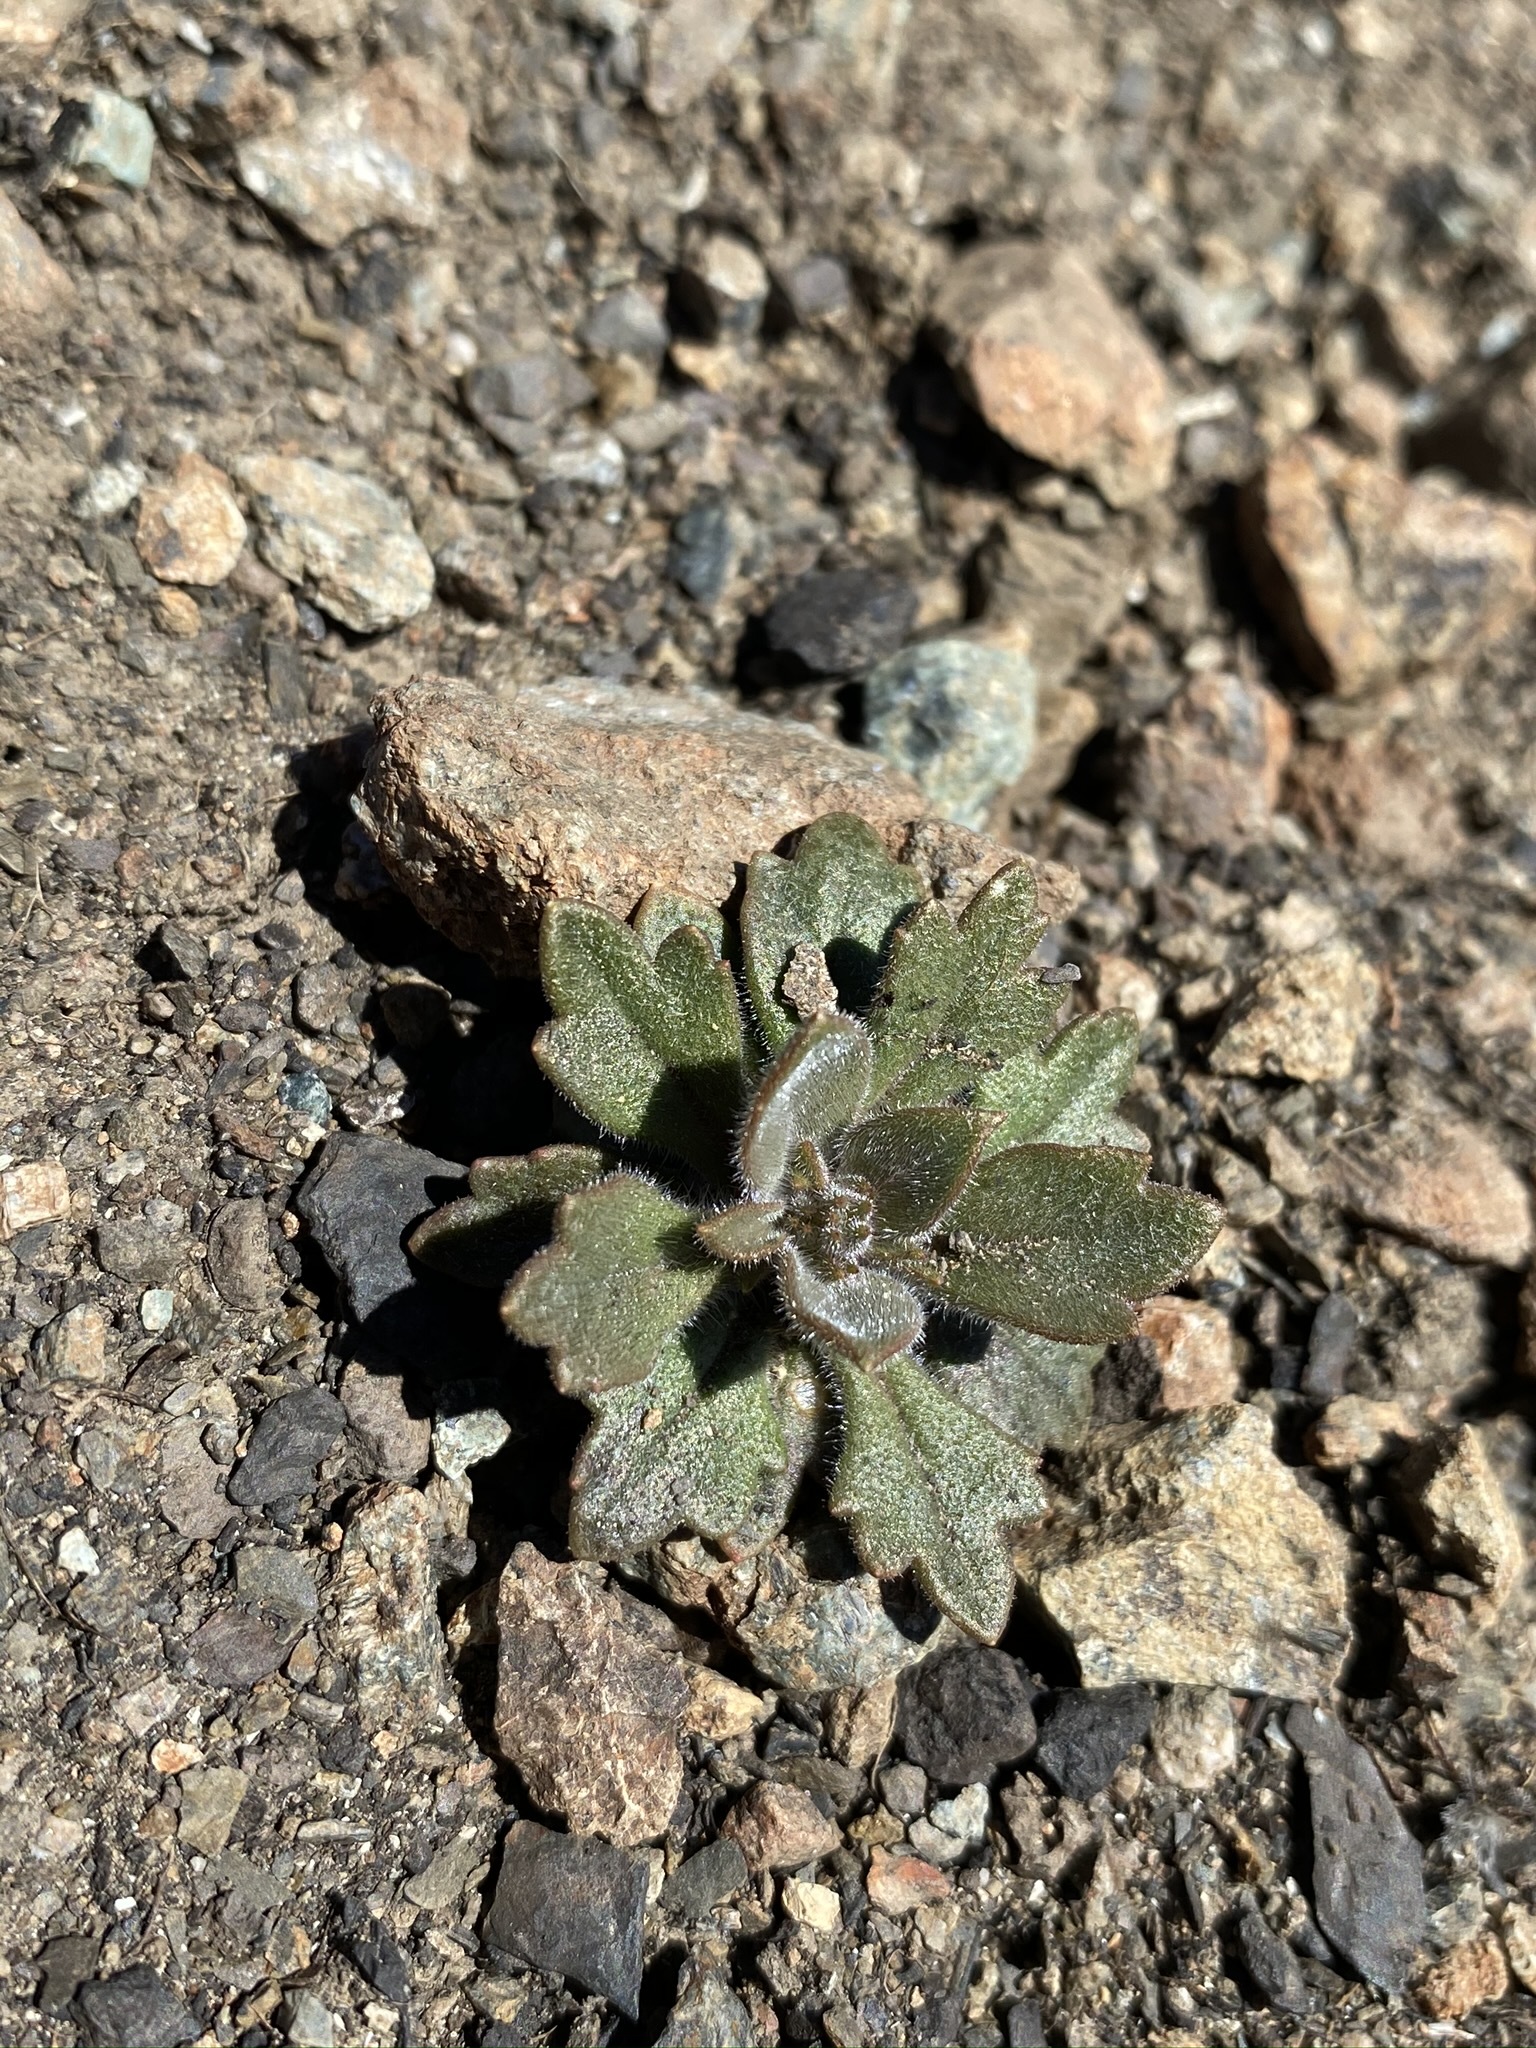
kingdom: Plantae
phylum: Tracheophyta
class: Magnoliopsida
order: Ericales
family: Polemoniaceae
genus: Collomia
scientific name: Collomia diversifolia
